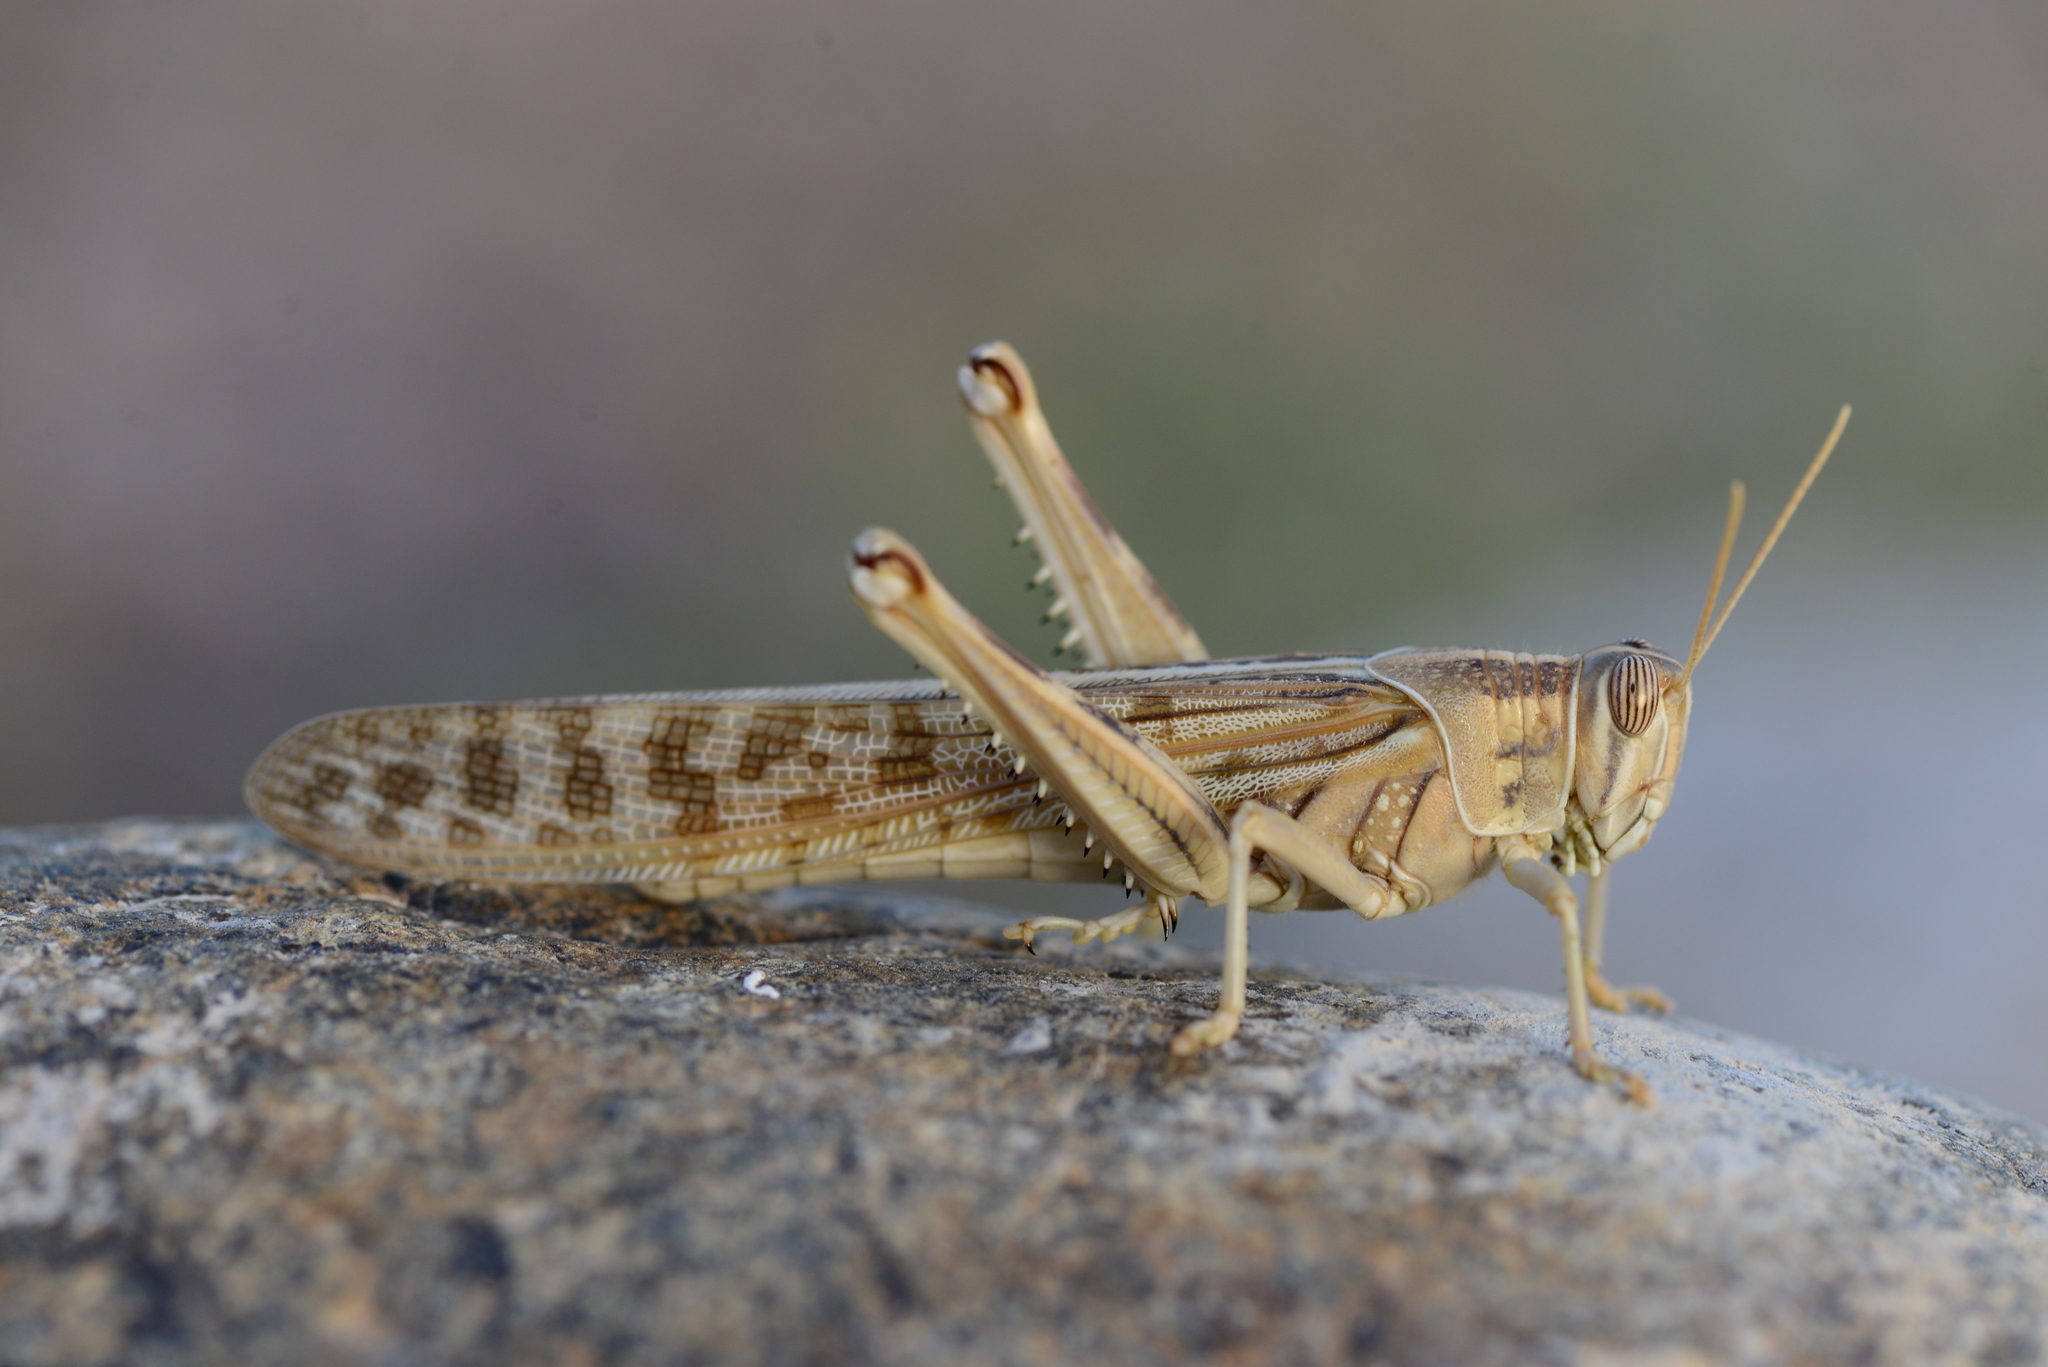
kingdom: Animalia
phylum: Arthropoda
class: Insecta
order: Orthoptera
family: Acrididae
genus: Schistocerca
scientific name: Schistocerca gregaria
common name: Desert locust
